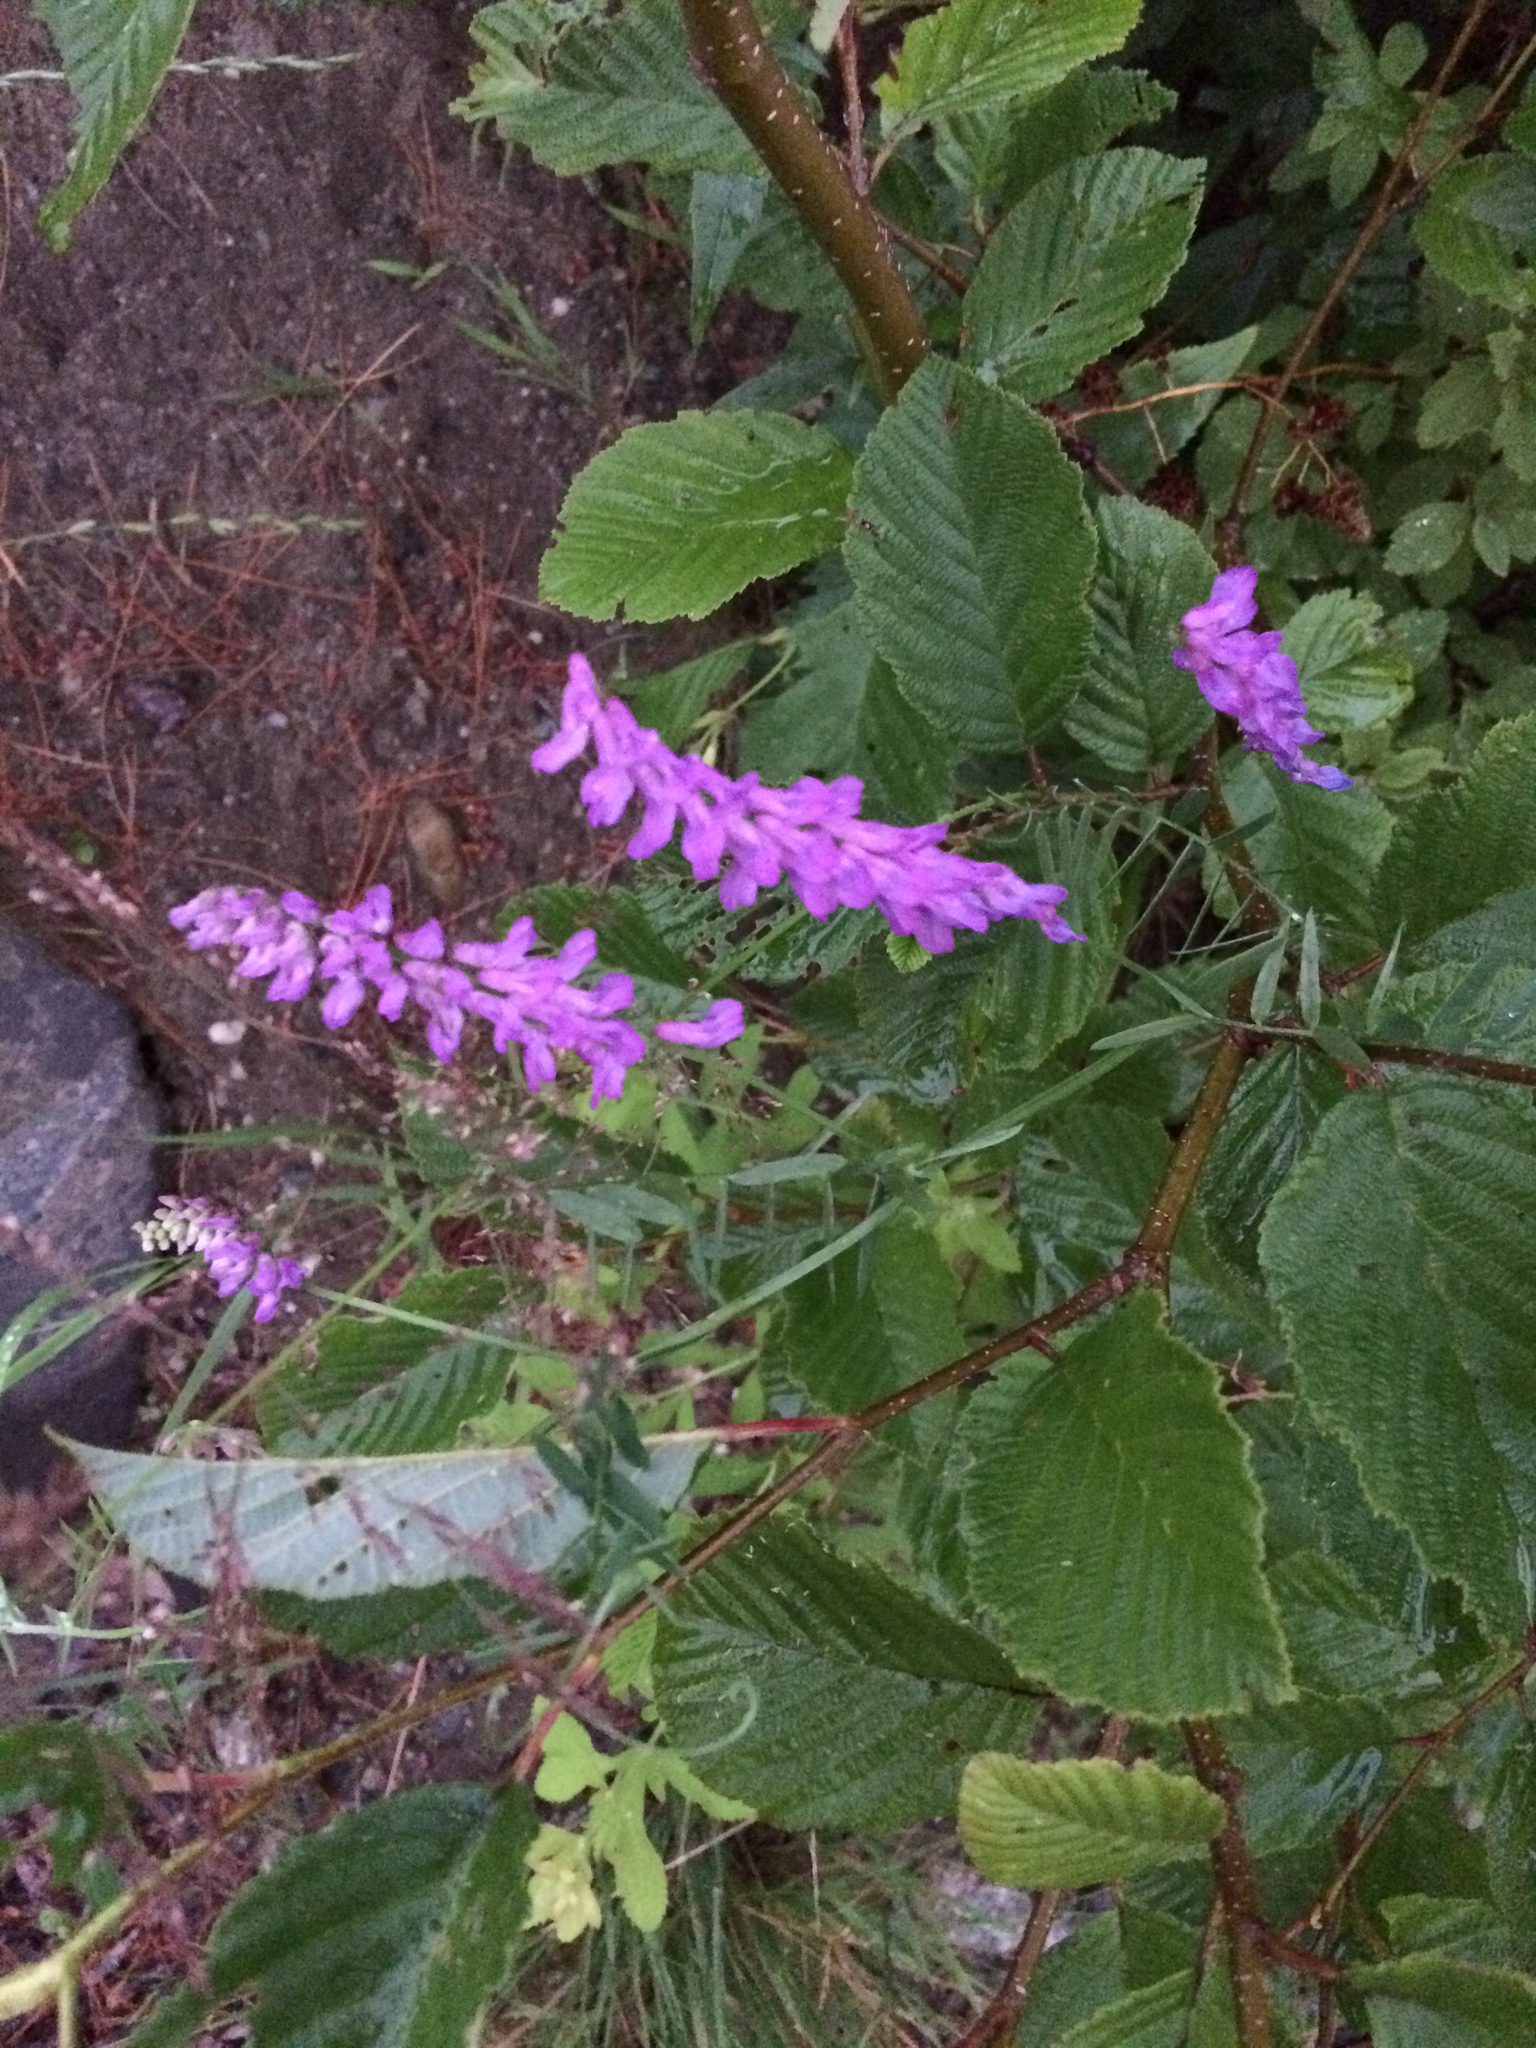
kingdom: Plantae
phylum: Tracheophyta
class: Magnoliopsida
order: Fabales
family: Fabaceae
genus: Vicia
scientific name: Vicia cracca
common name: Bird vetch
